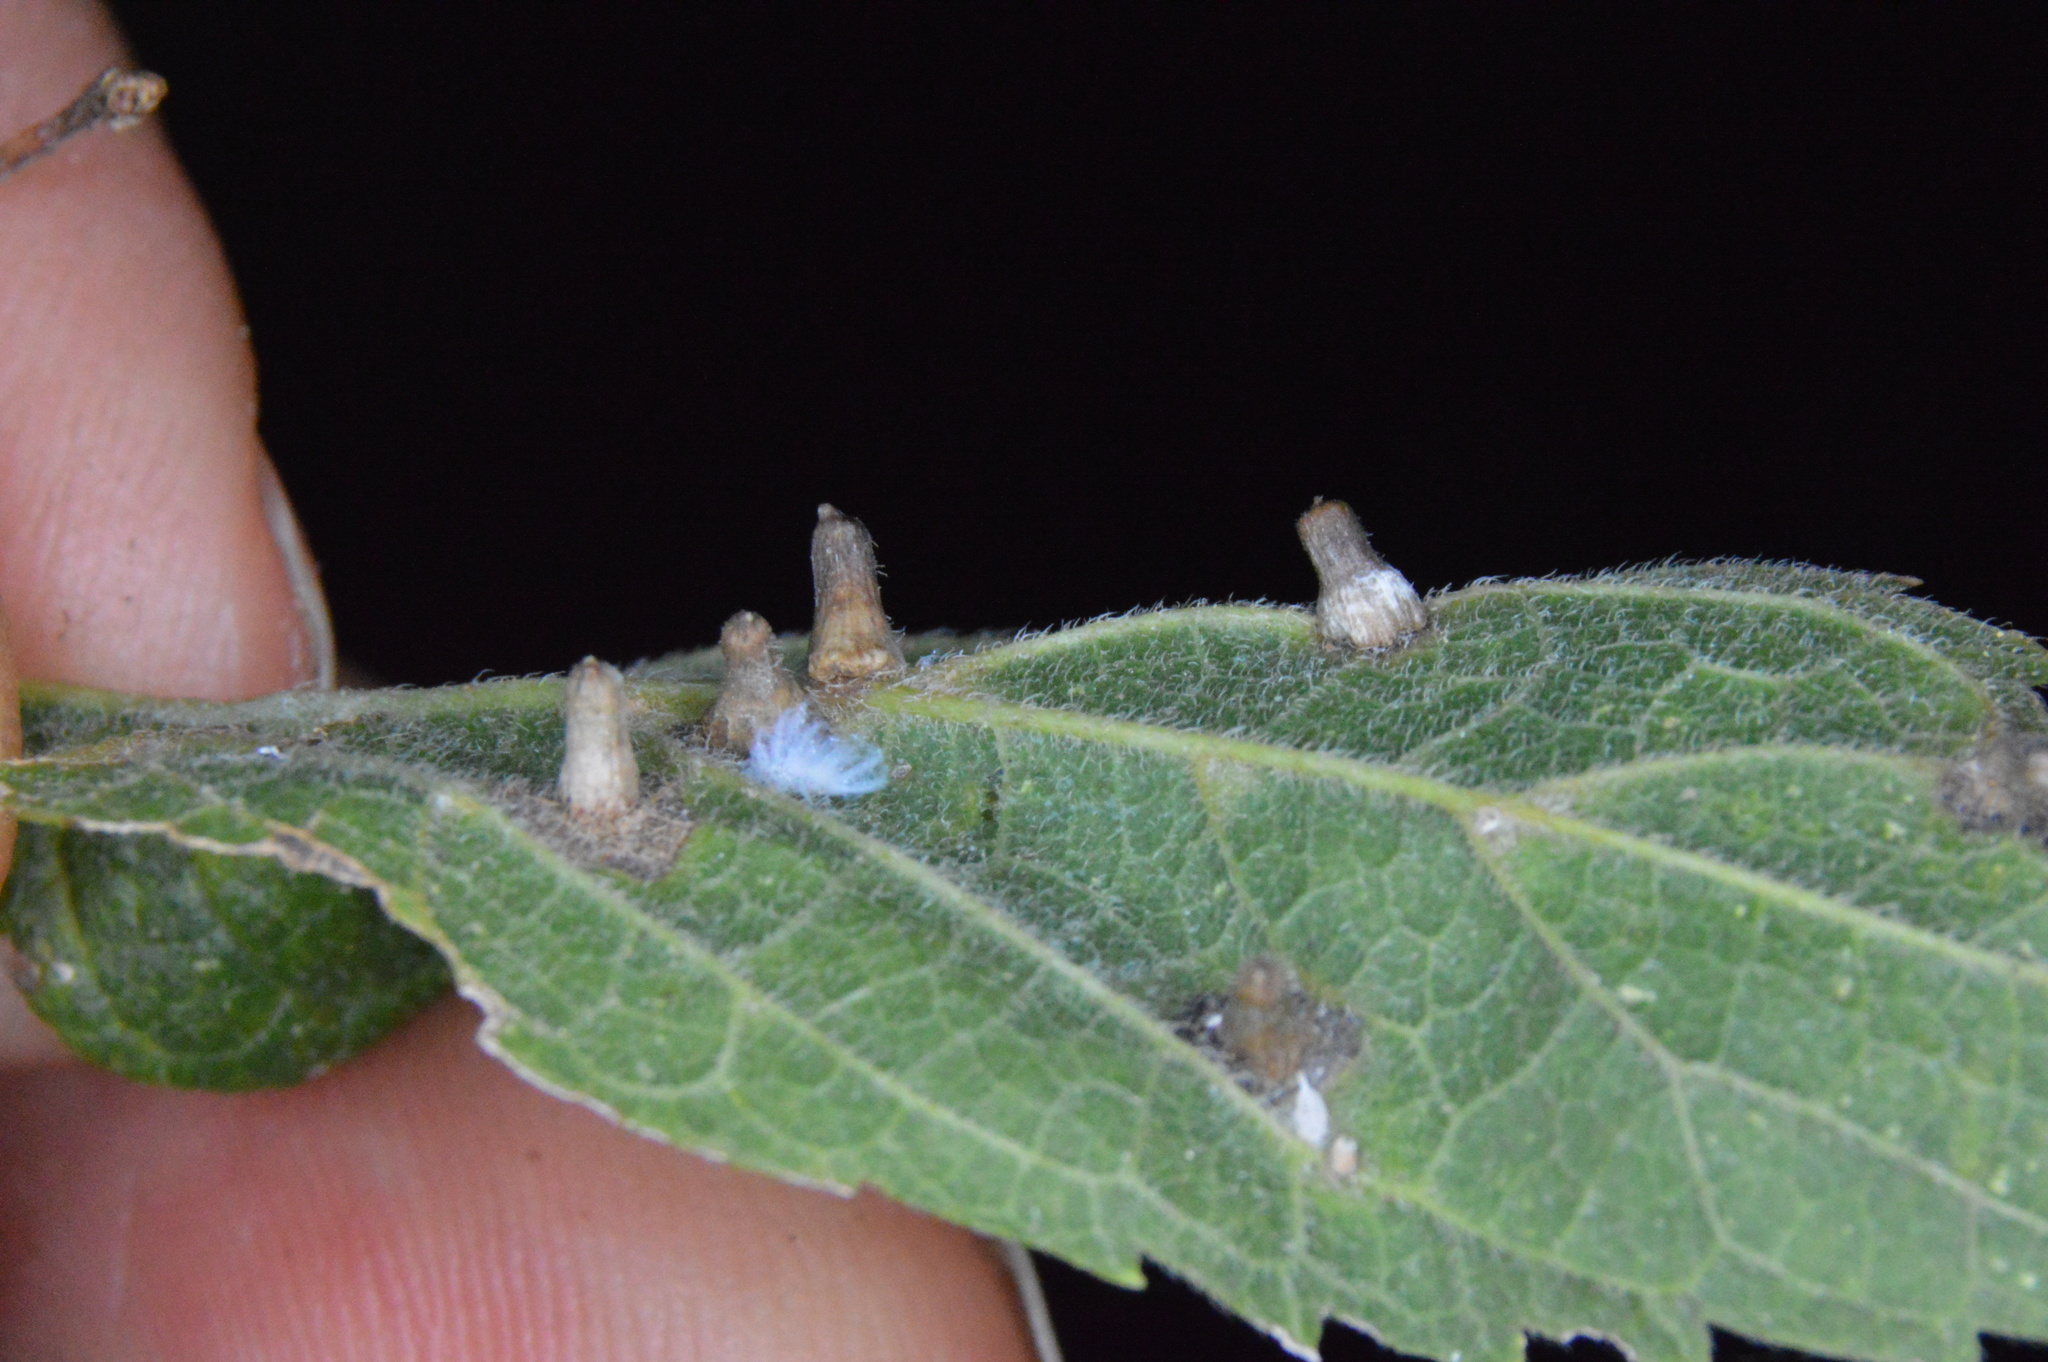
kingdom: Animalia
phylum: Arthropoda
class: Insecta
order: Diptera
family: Cecidomyiidae
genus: Celticecis
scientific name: Celticecis aciculata
